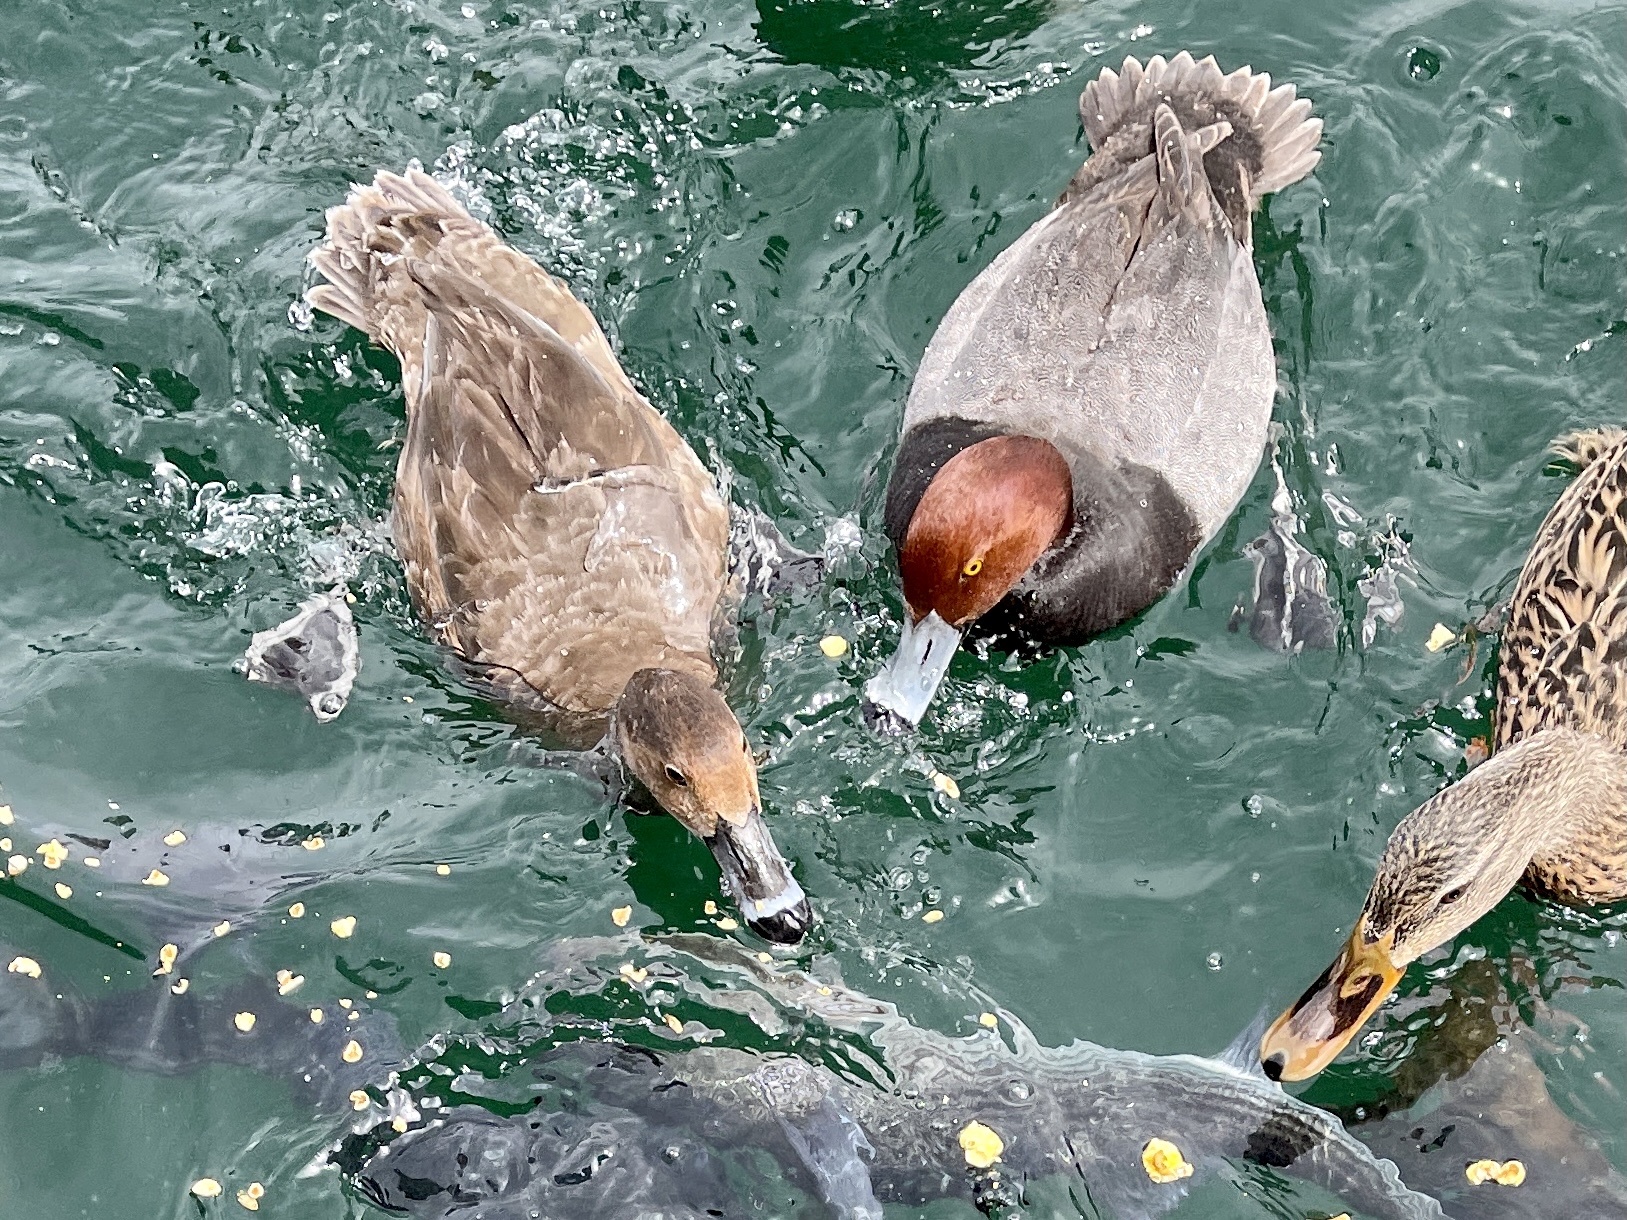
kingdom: Animalia
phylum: Chordata
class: Aves
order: Anseriformes
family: Anatidae
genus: Aythya
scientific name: Aythya americana
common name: Redhead
